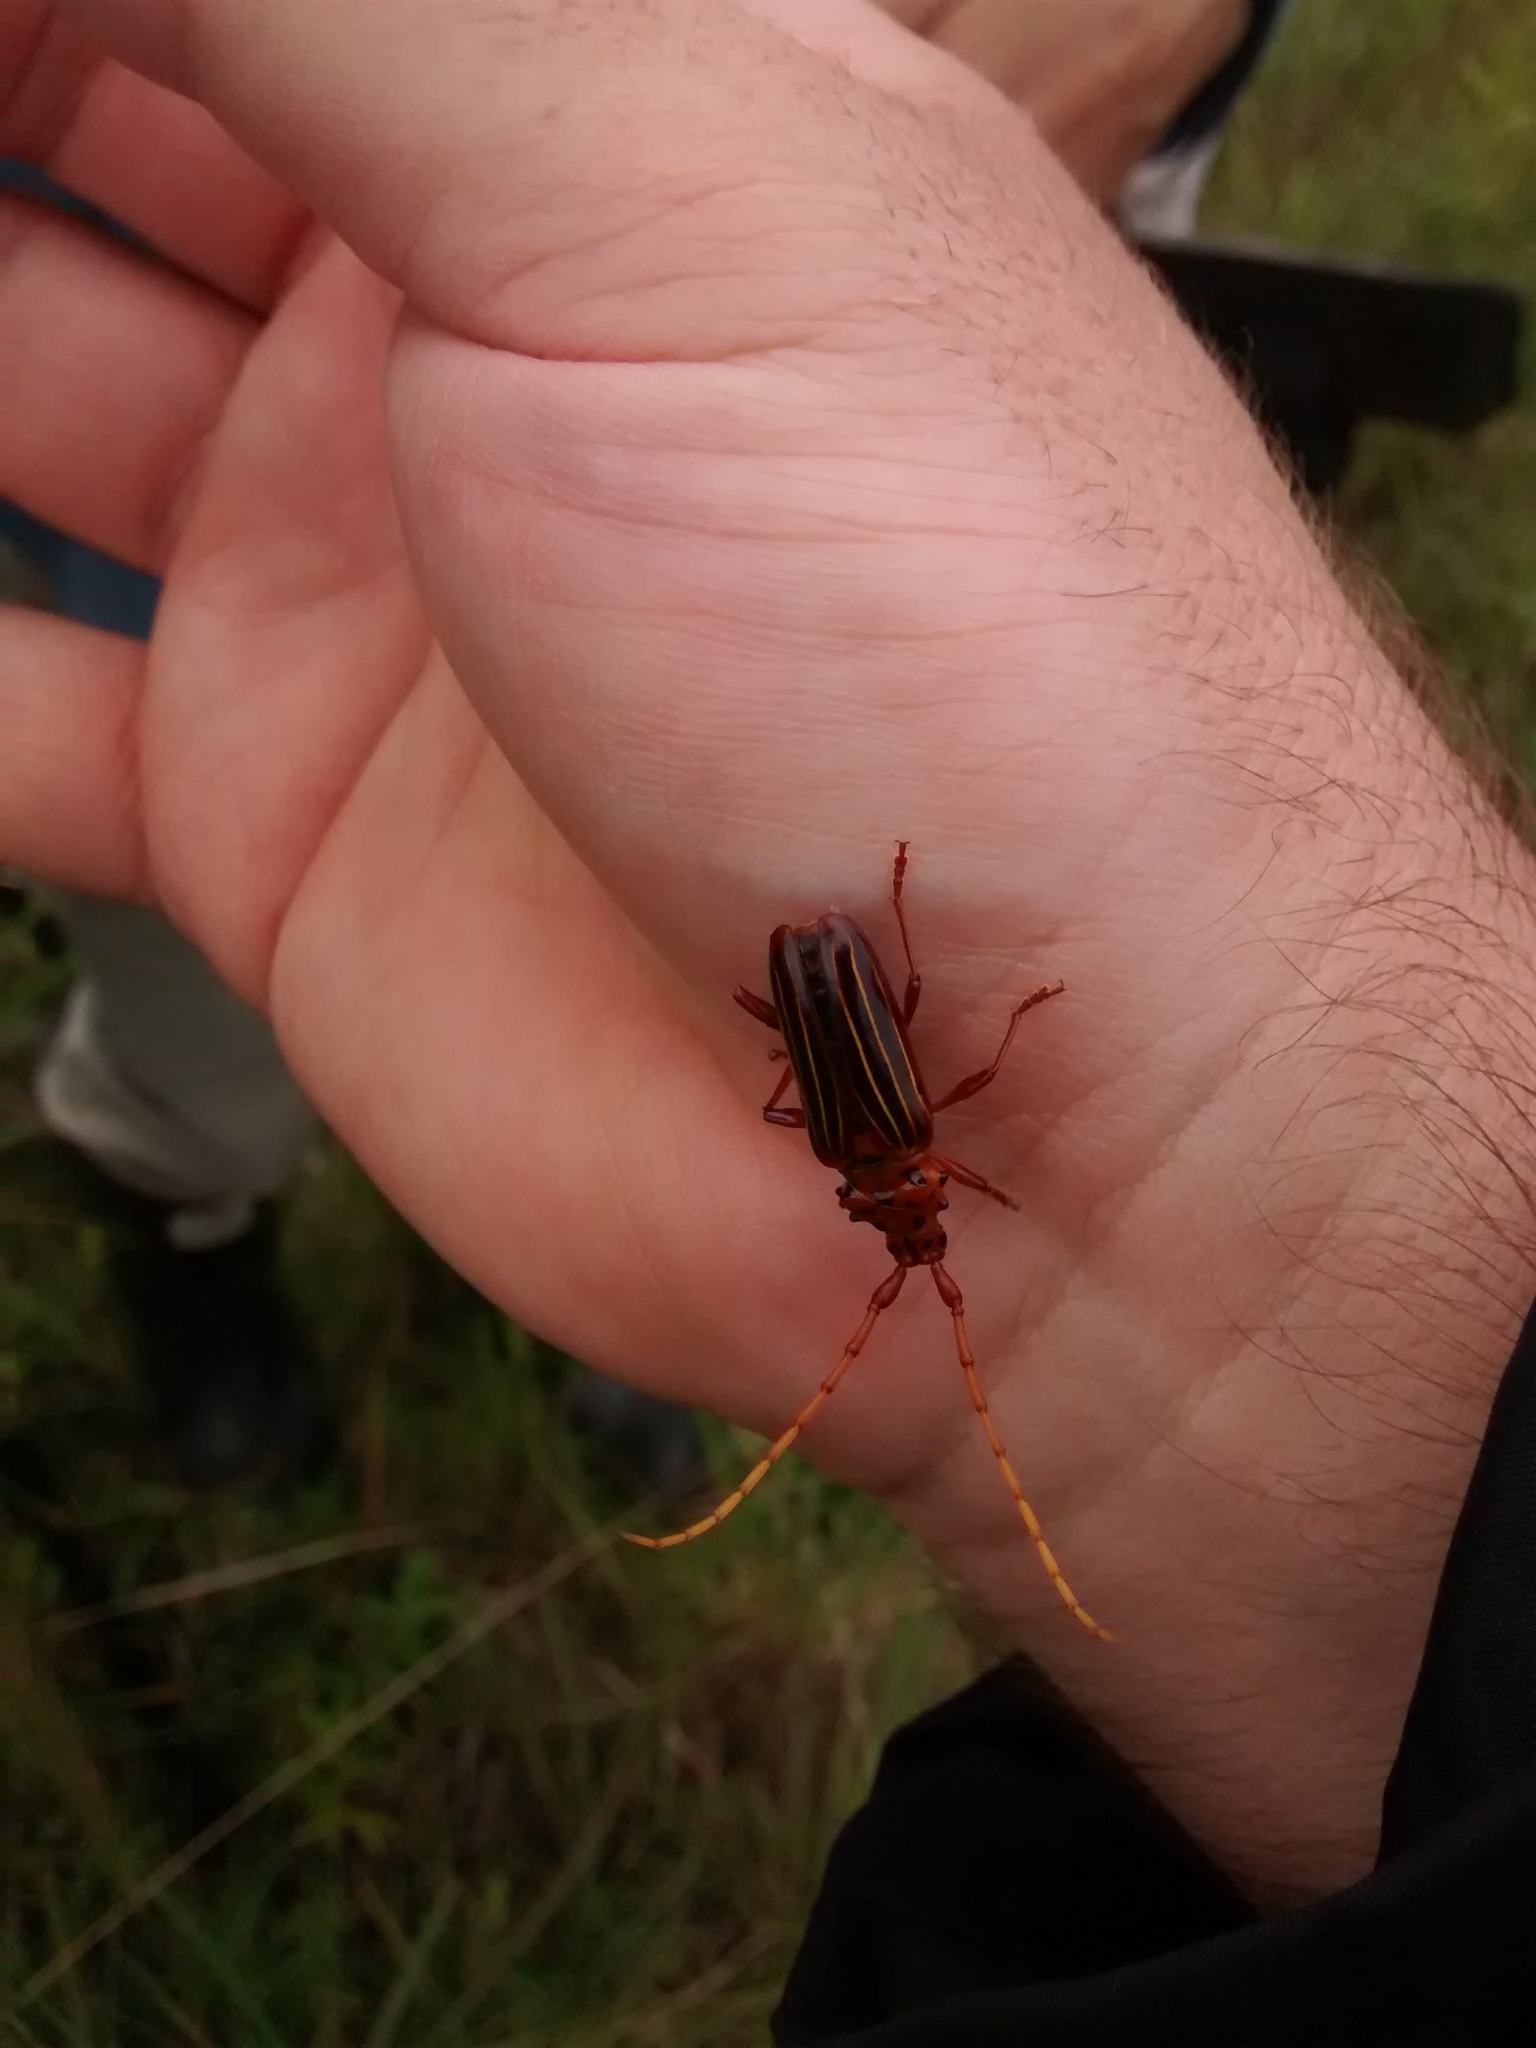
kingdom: Animalia
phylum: Arthropoda
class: Insecta
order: Coleoptera
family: Cerambycidae
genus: Chydarteres
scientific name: Chydarteres striatus
